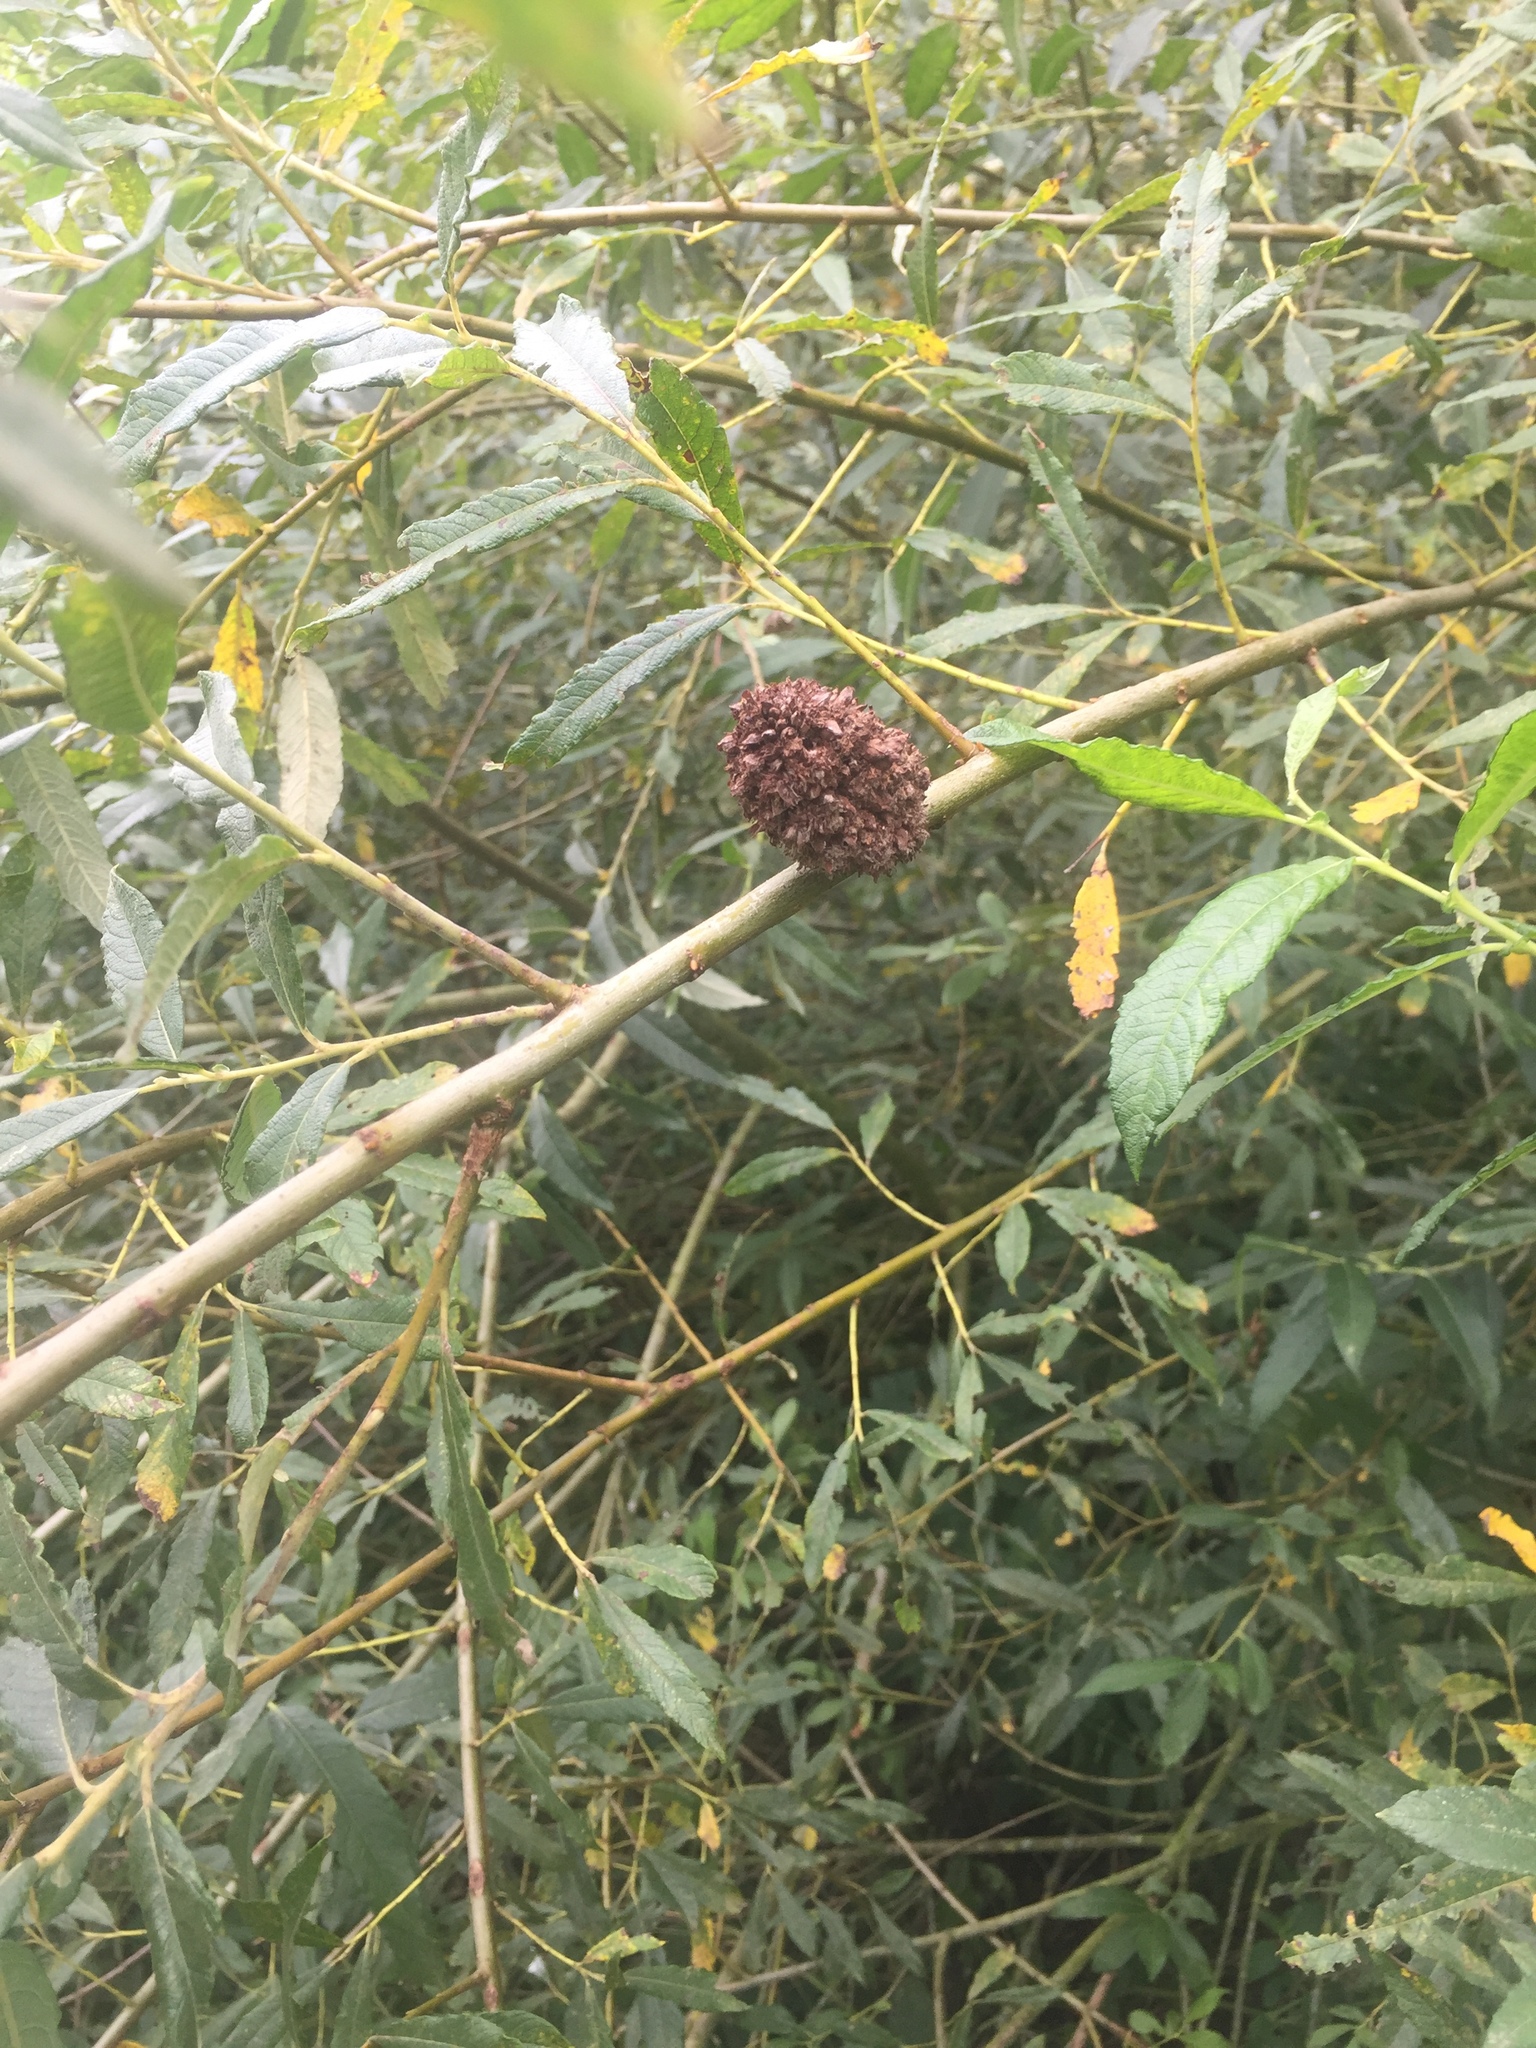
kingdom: Animalia
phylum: Arthropoda
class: Arachnida
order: Trombidiformes
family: Eriophyidae
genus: Stenacis
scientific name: Stenacis triradiatus
